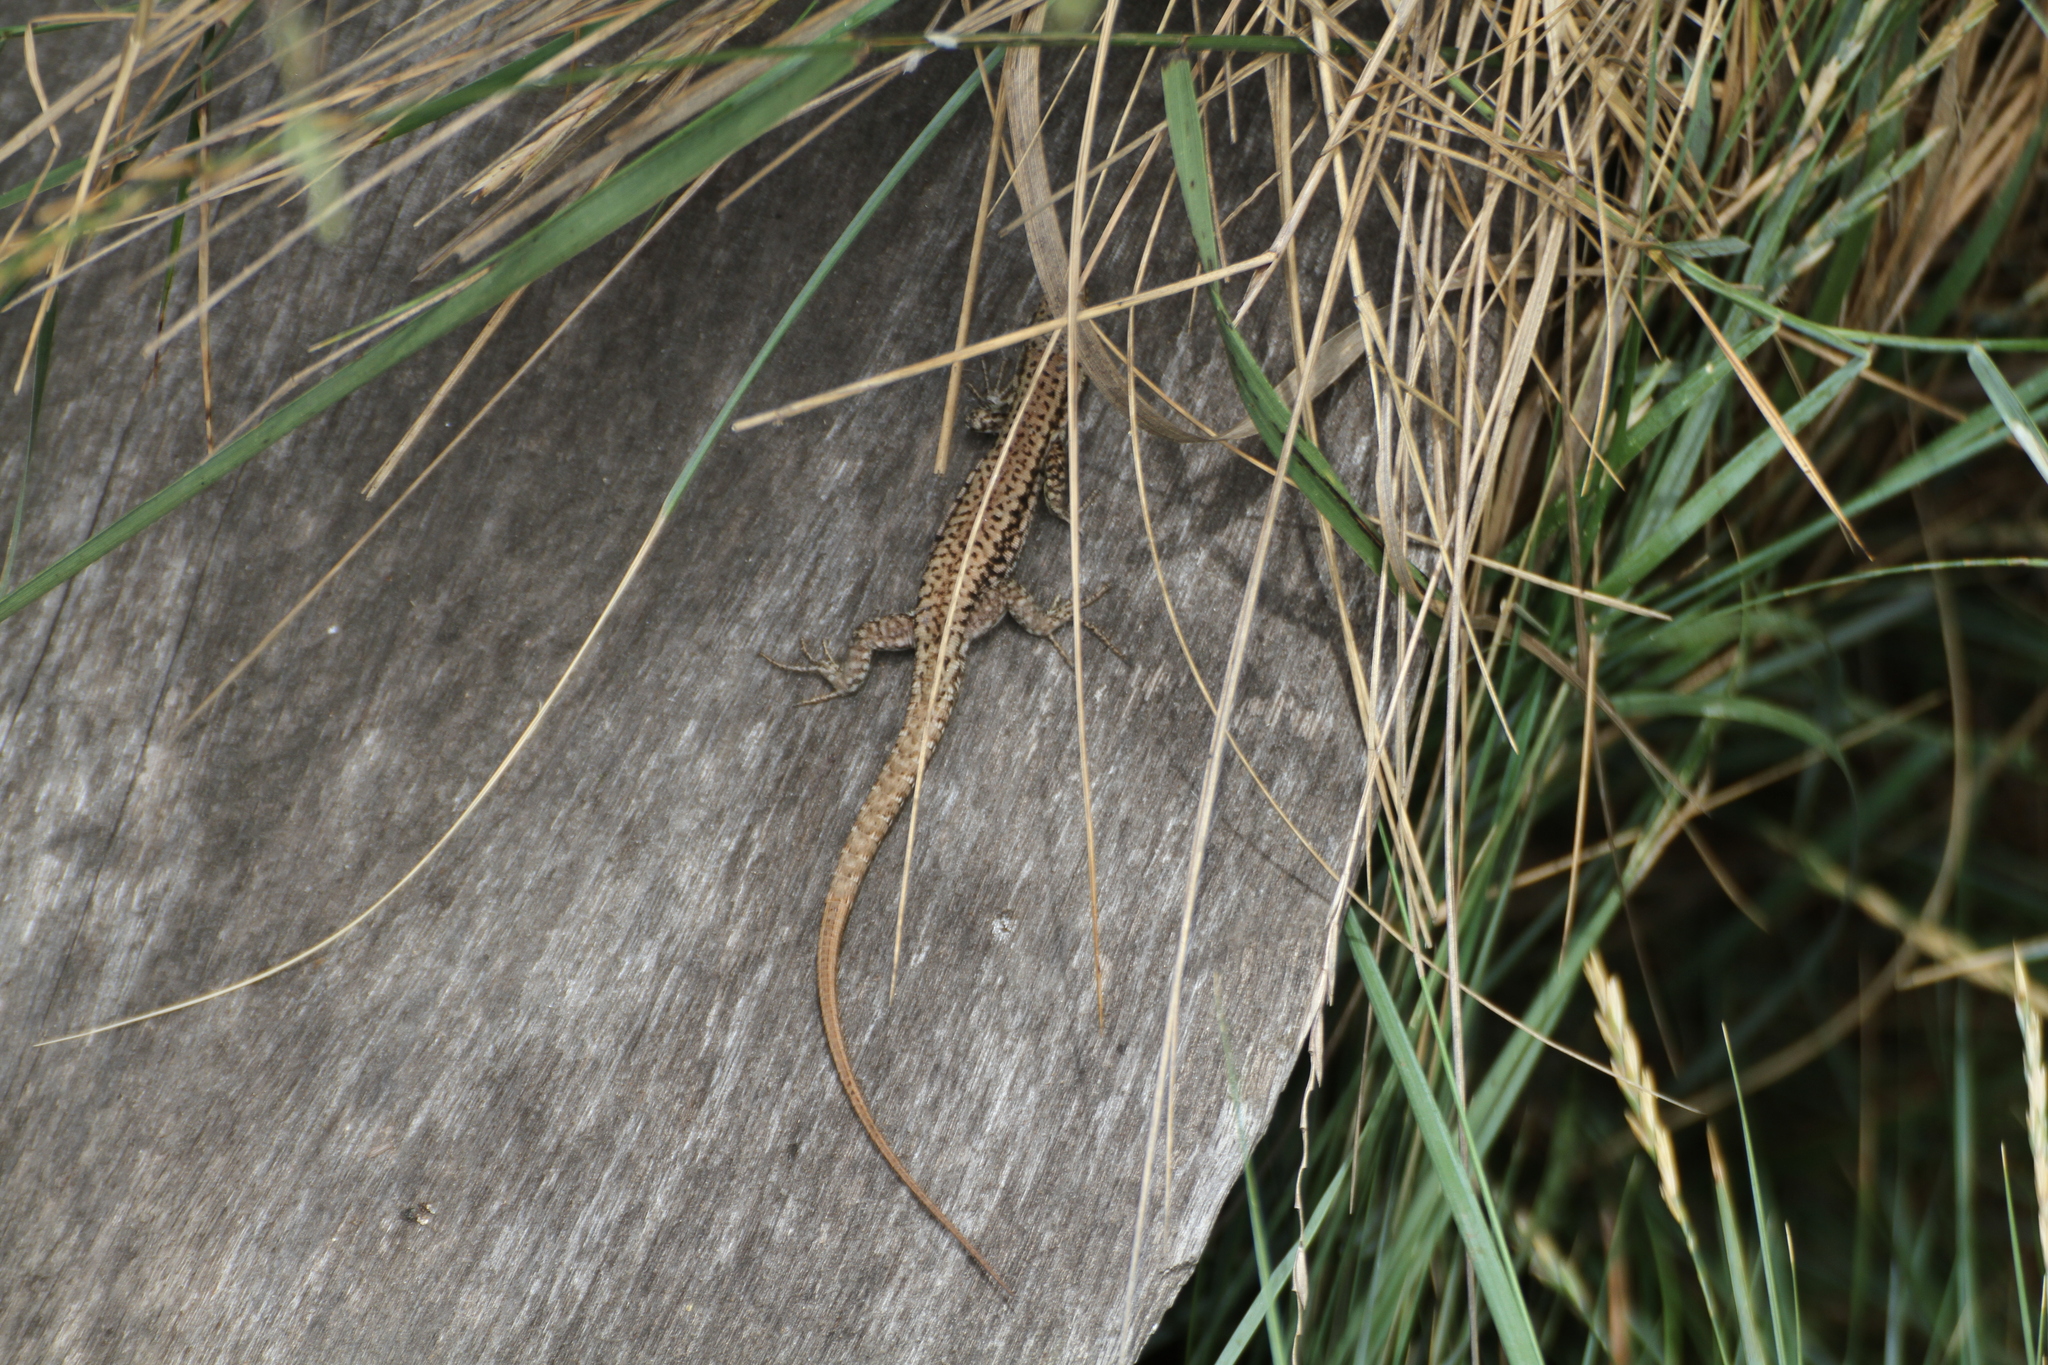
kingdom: Animalia
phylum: Chordata
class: Squamata
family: Lacertidae
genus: Podarcis
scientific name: Podarcis muralis
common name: Common wall lizard
